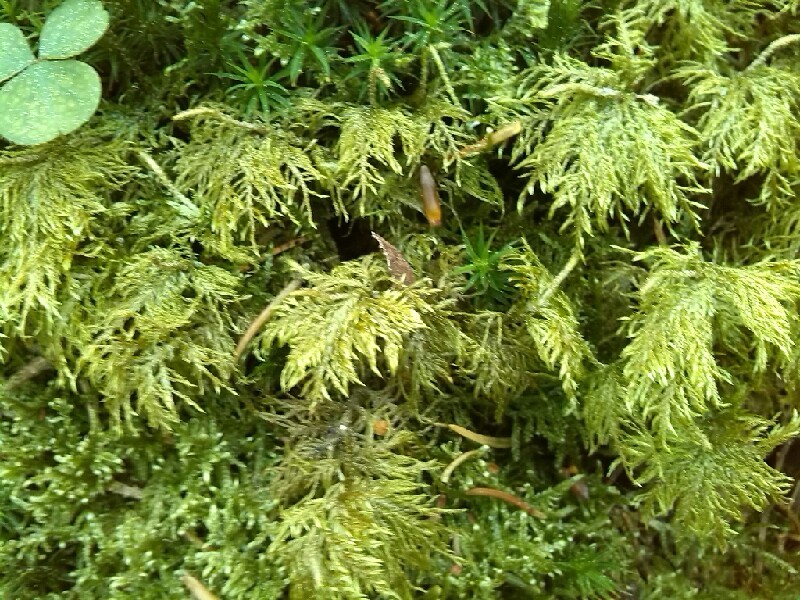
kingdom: Plantae
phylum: Bryophyta
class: Bryopsida
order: Hypnales
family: Thuidiaceae
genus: Thuidium
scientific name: Thuidium tamariscinum
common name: Common tamarisk-moss
